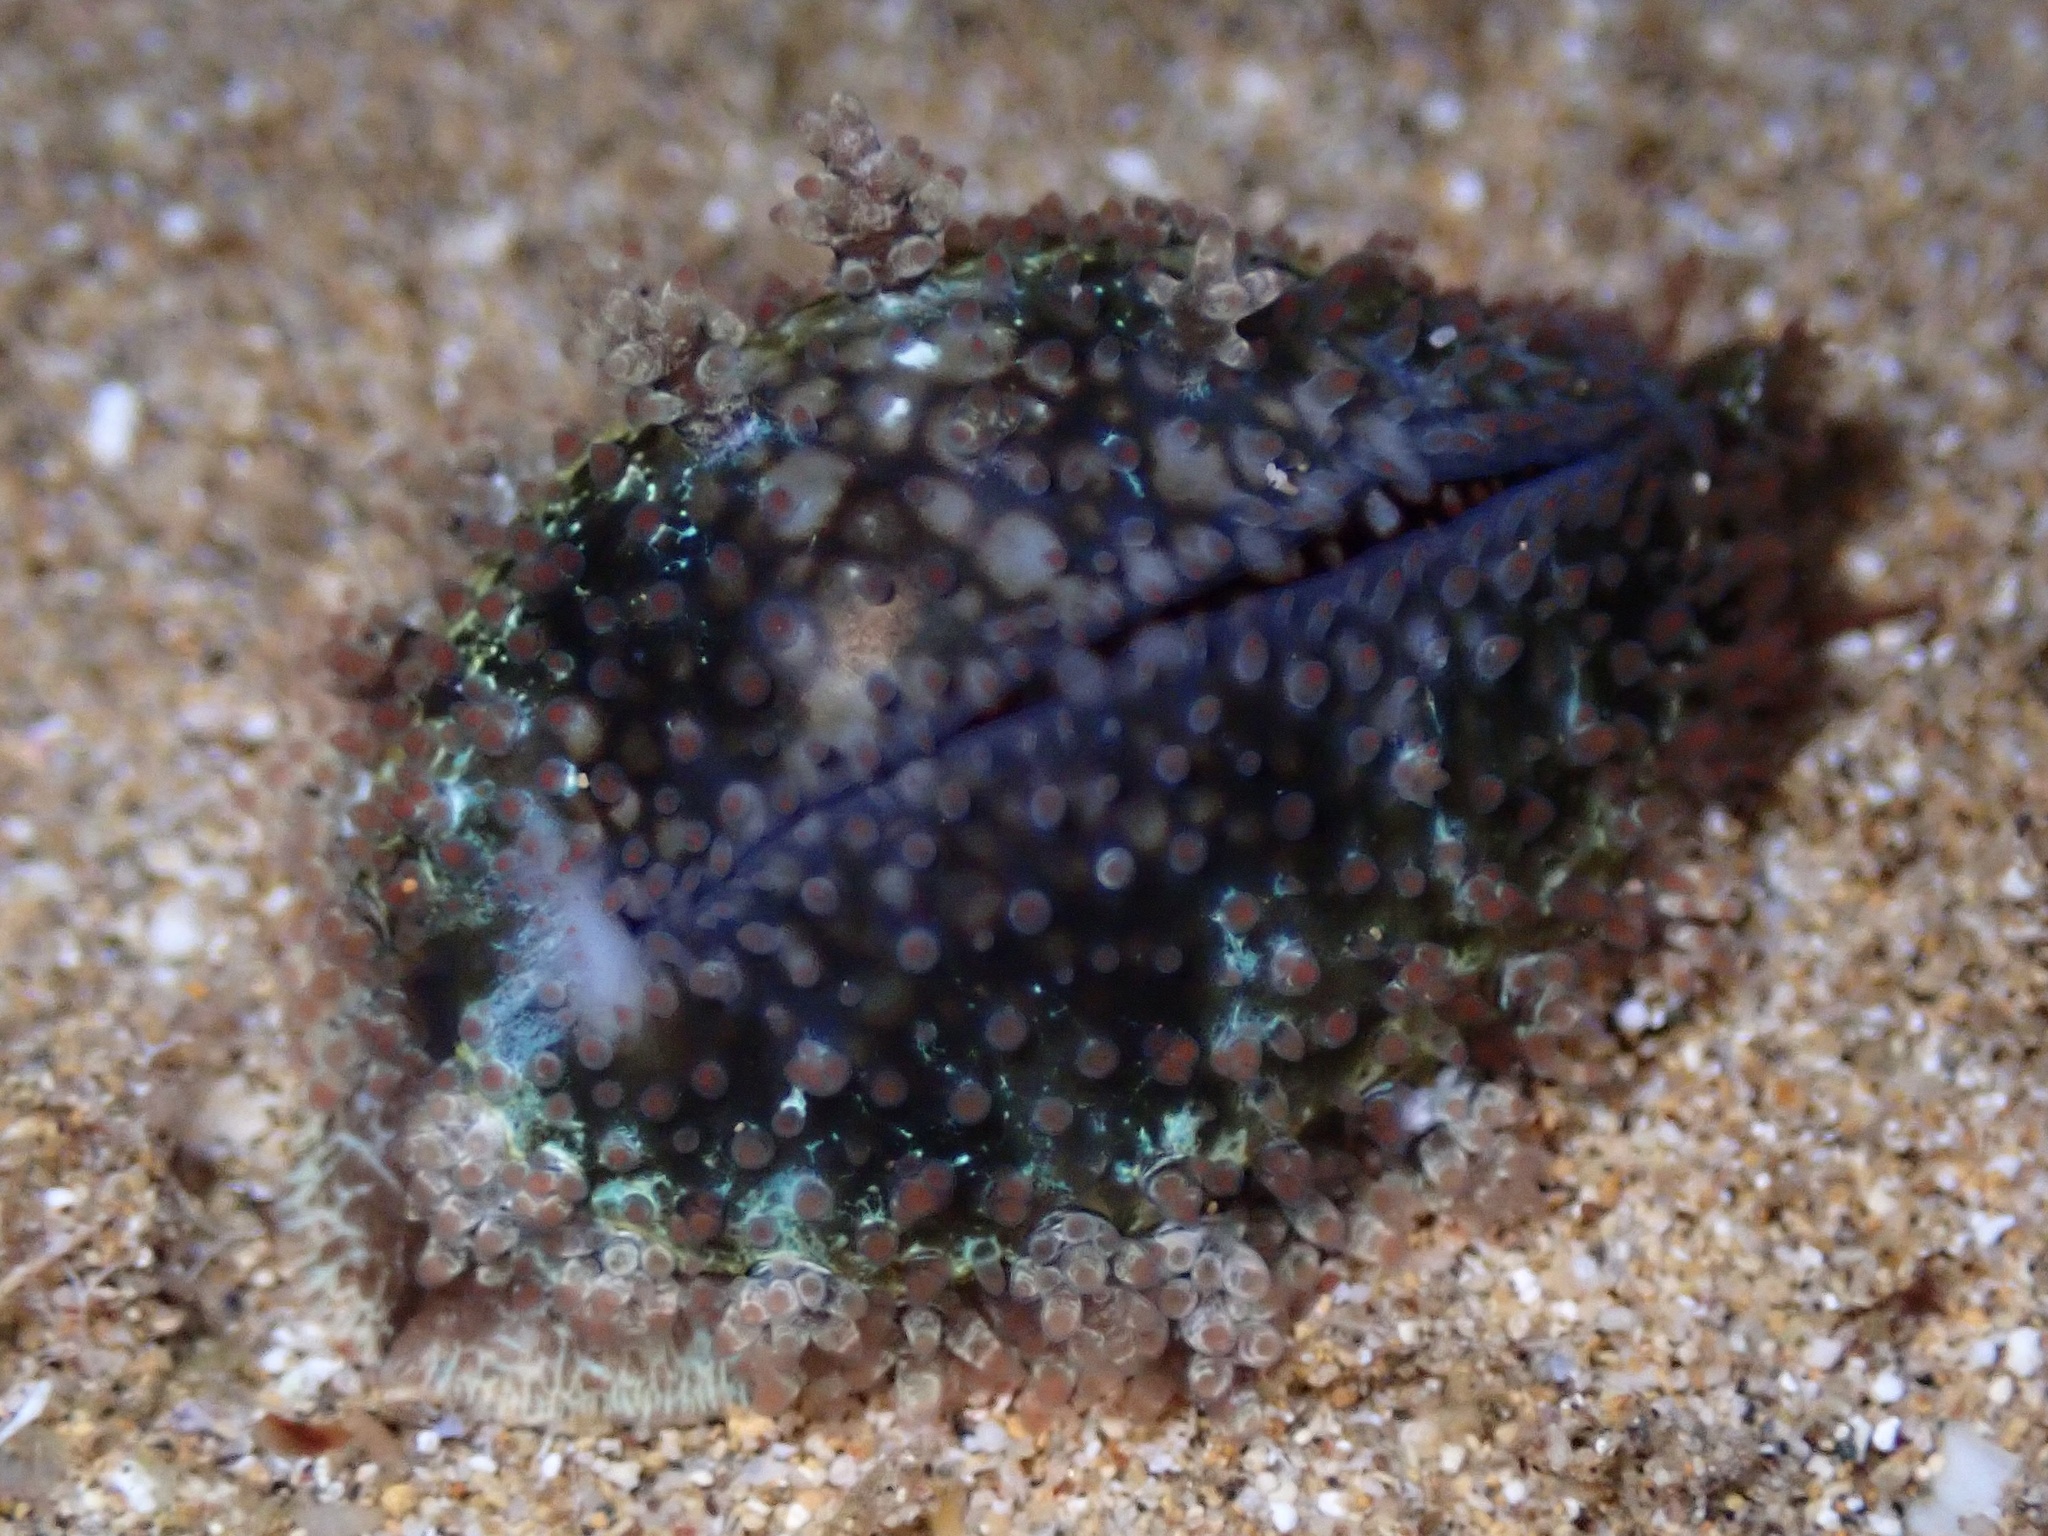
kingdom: Animalia
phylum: Mollusca
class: Gastropoda
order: Littorinimorpha
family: Cypraeidae
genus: Monetaria
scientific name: Monetaria caputophidii
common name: Snake's head cowry
